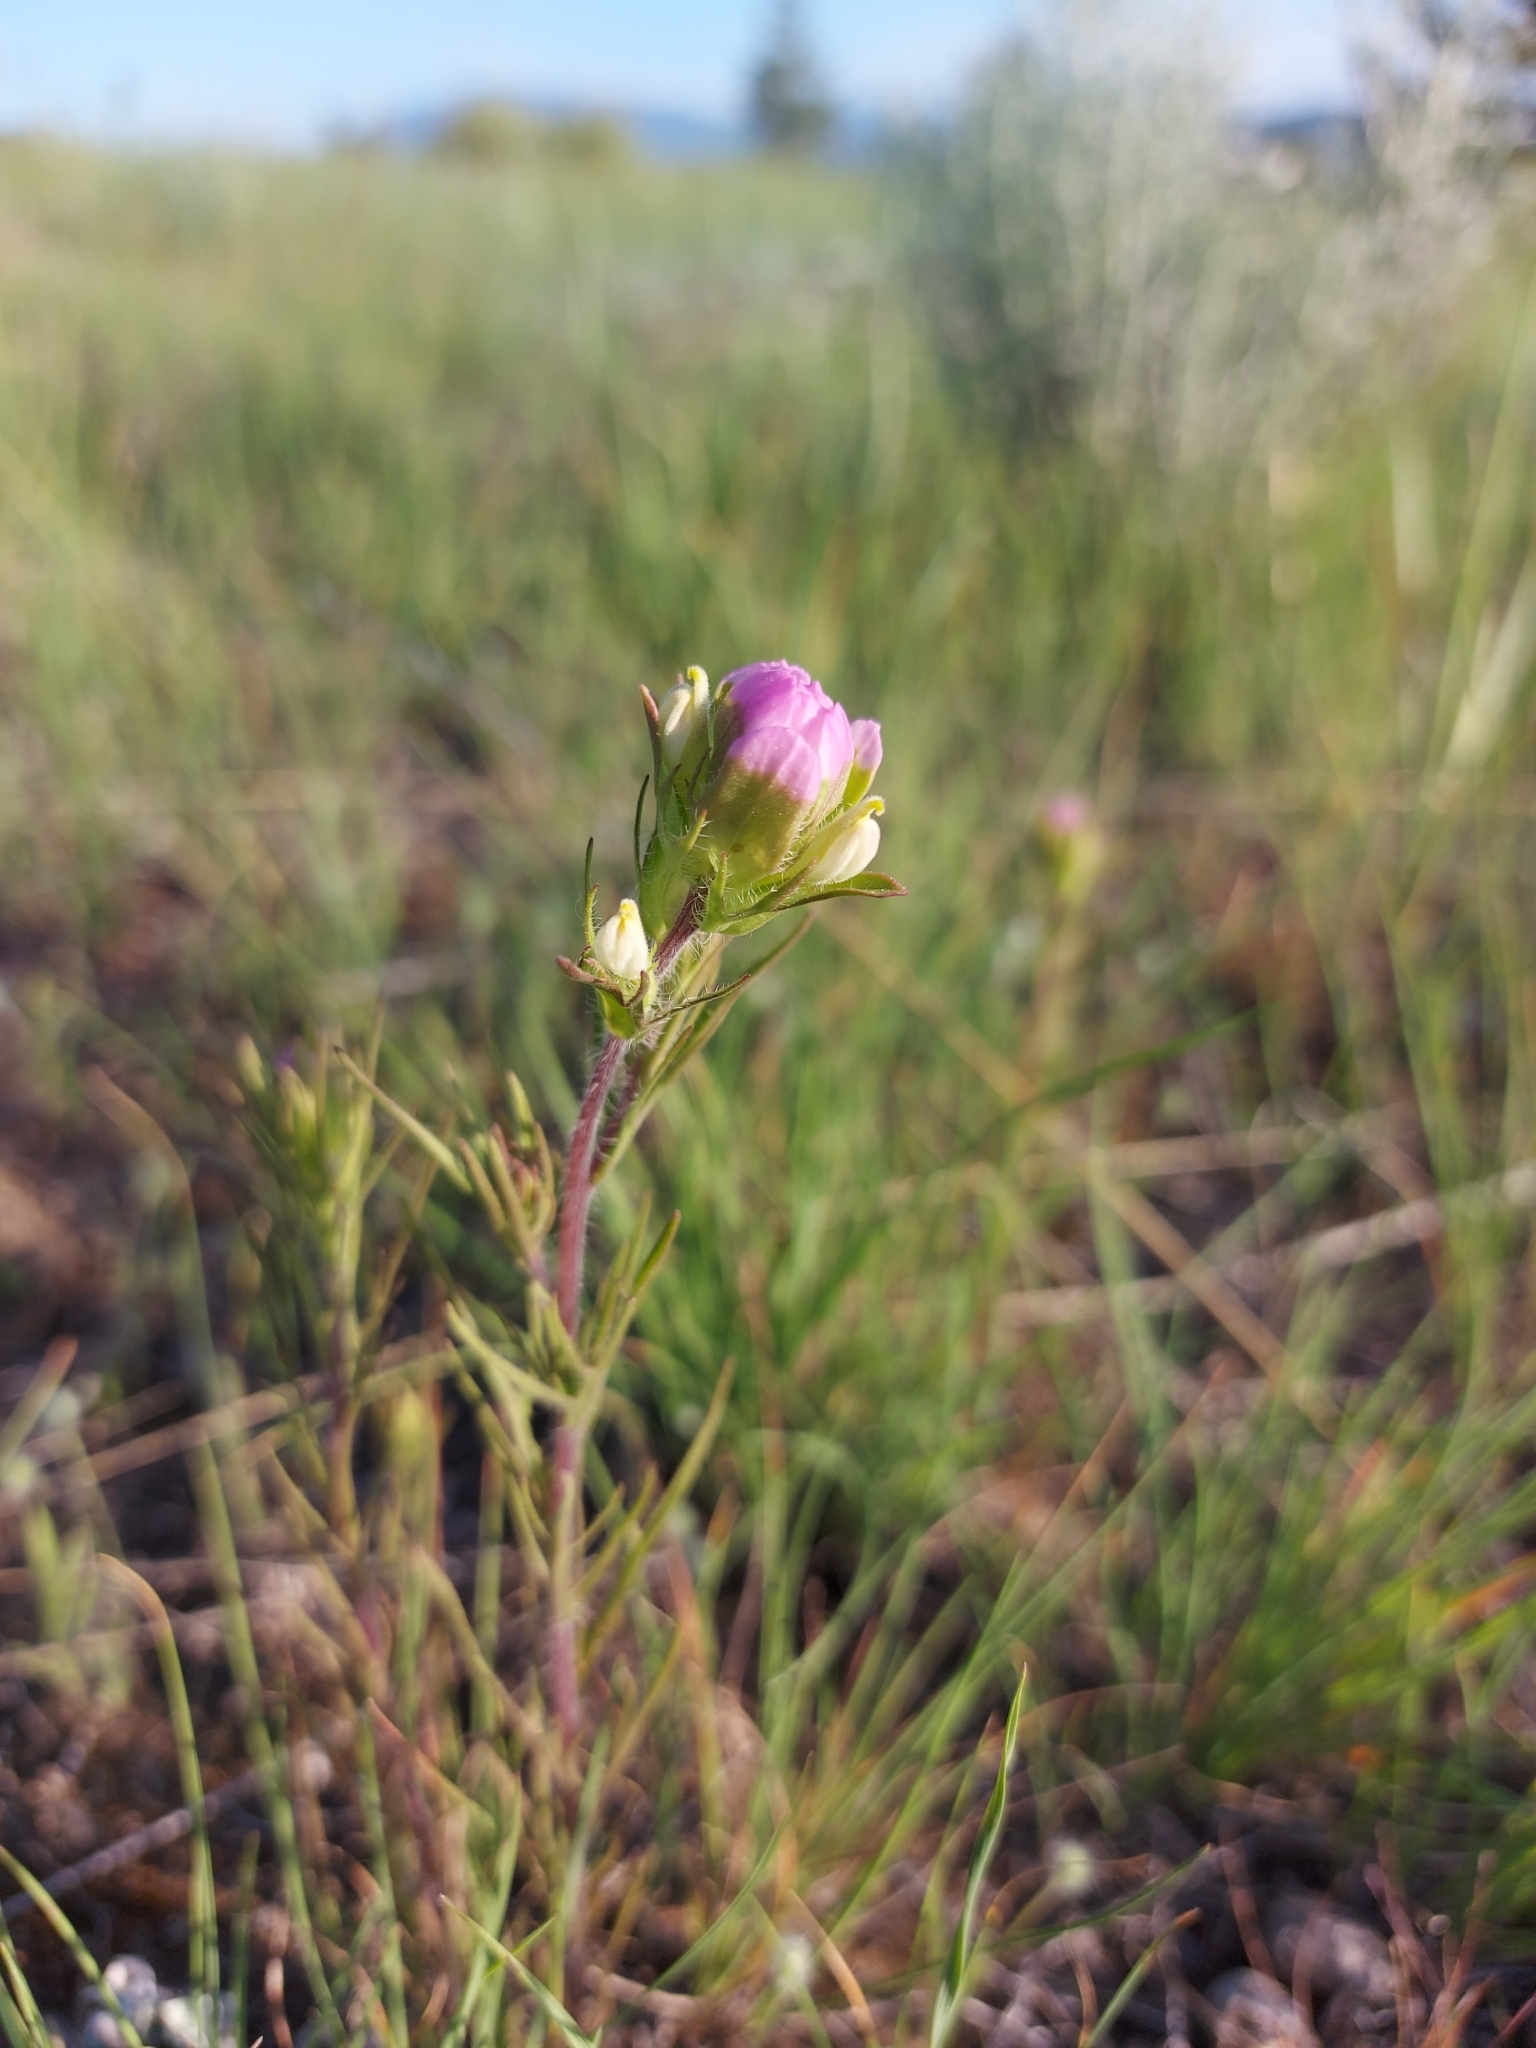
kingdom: Plantae
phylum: Tracheophyta
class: Magnoliopsida
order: Lamiales
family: Orobanchaceae
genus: Orthocarpus
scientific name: Orthocarpus tenuifolius
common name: Thin-leaved owl's-clover
